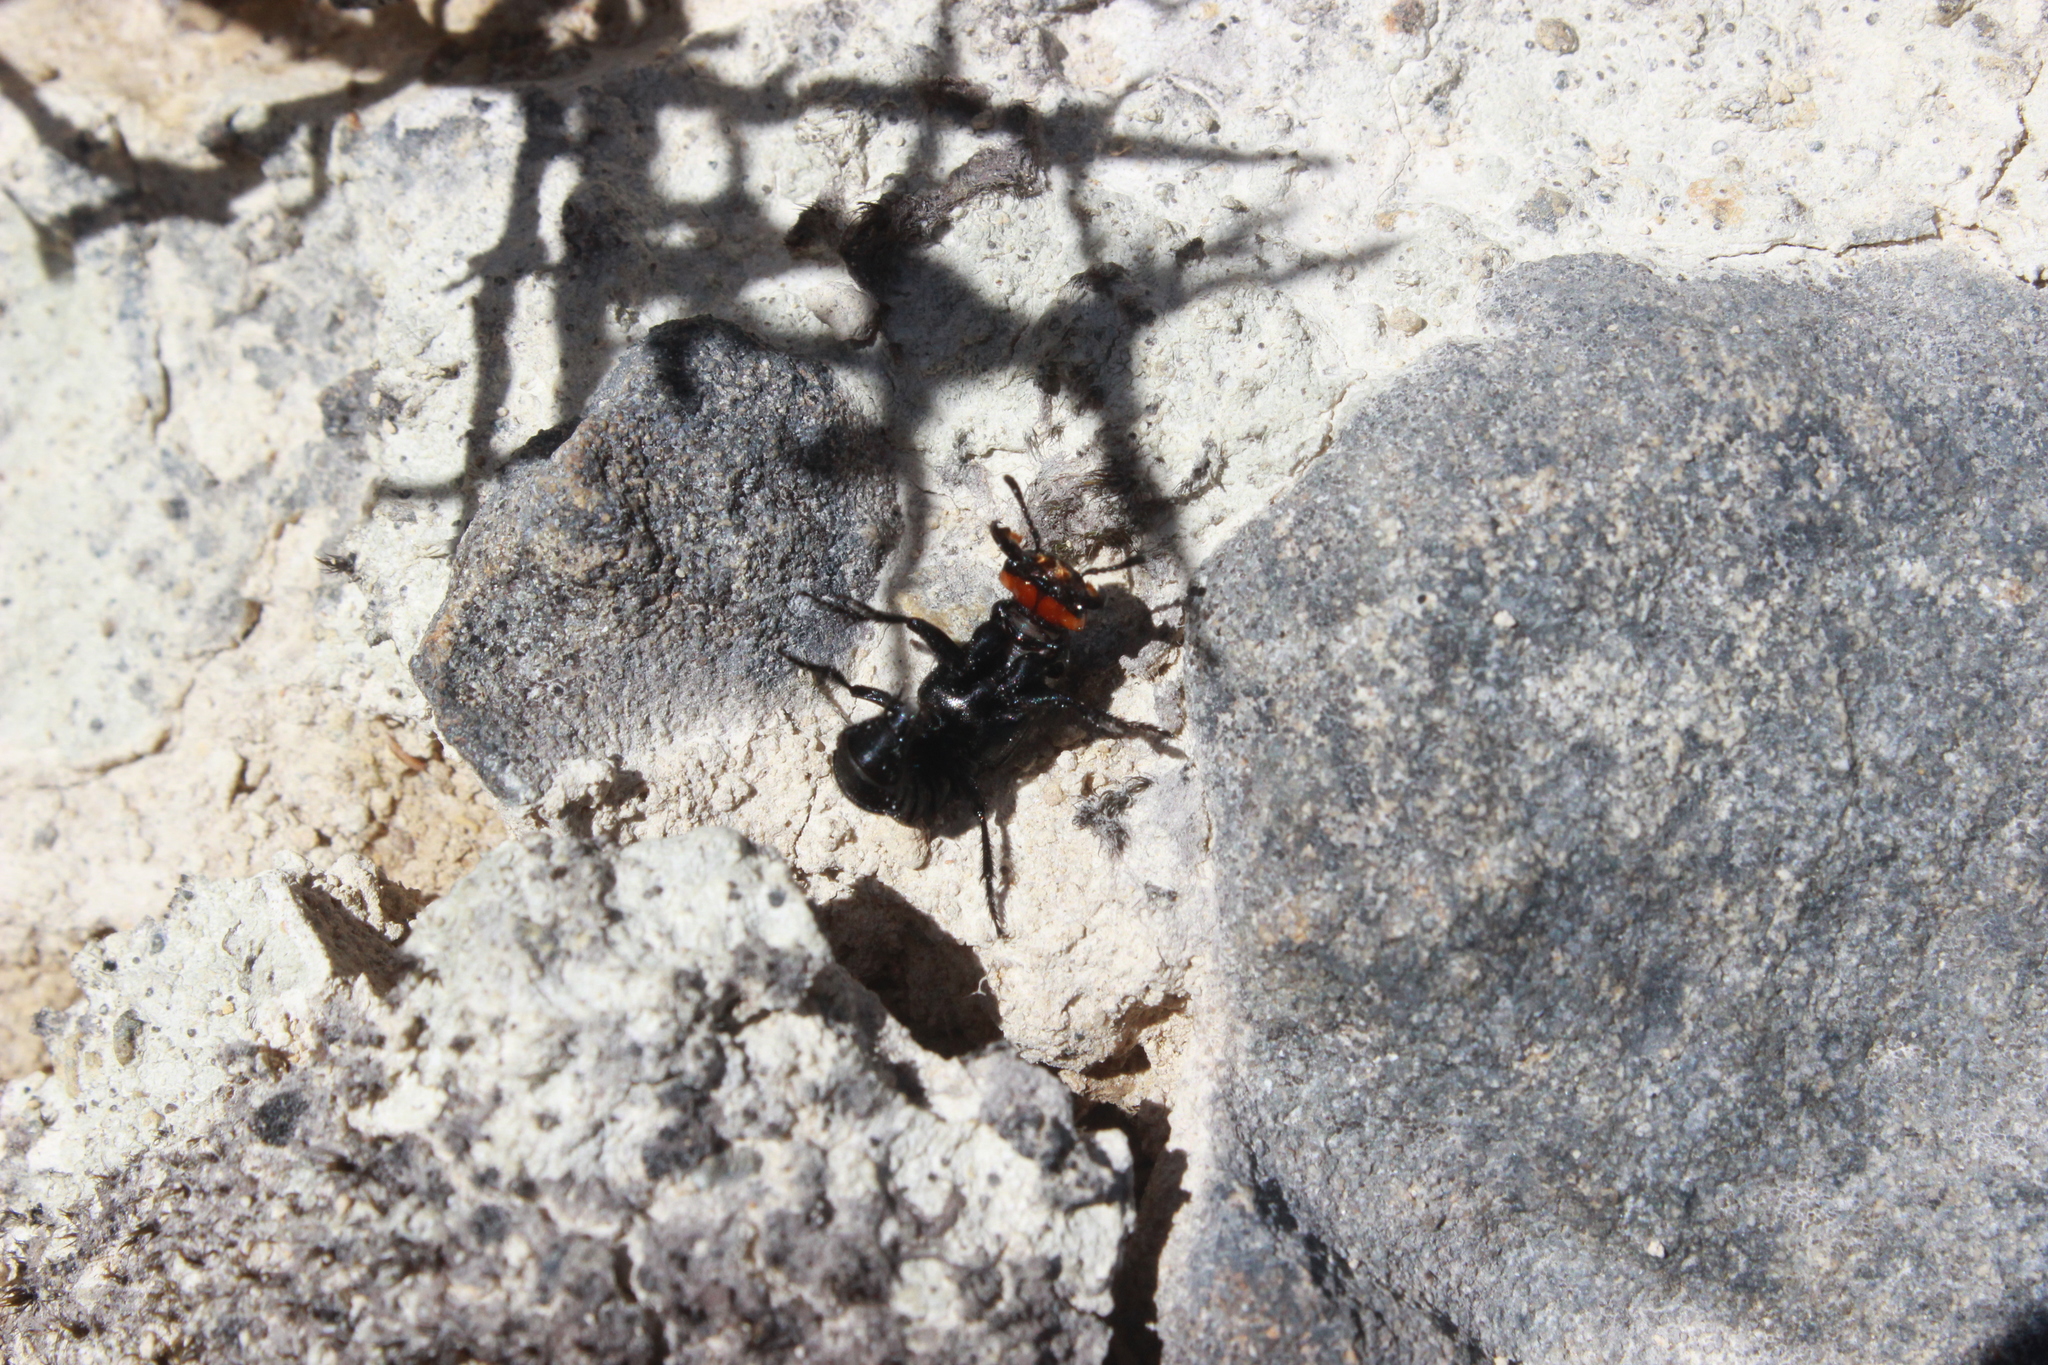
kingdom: Animalia
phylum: Arthropoda
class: Insecta
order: Coleoptera
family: Staphylinidae
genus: Creophilus
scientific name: Creophilus oculatus
